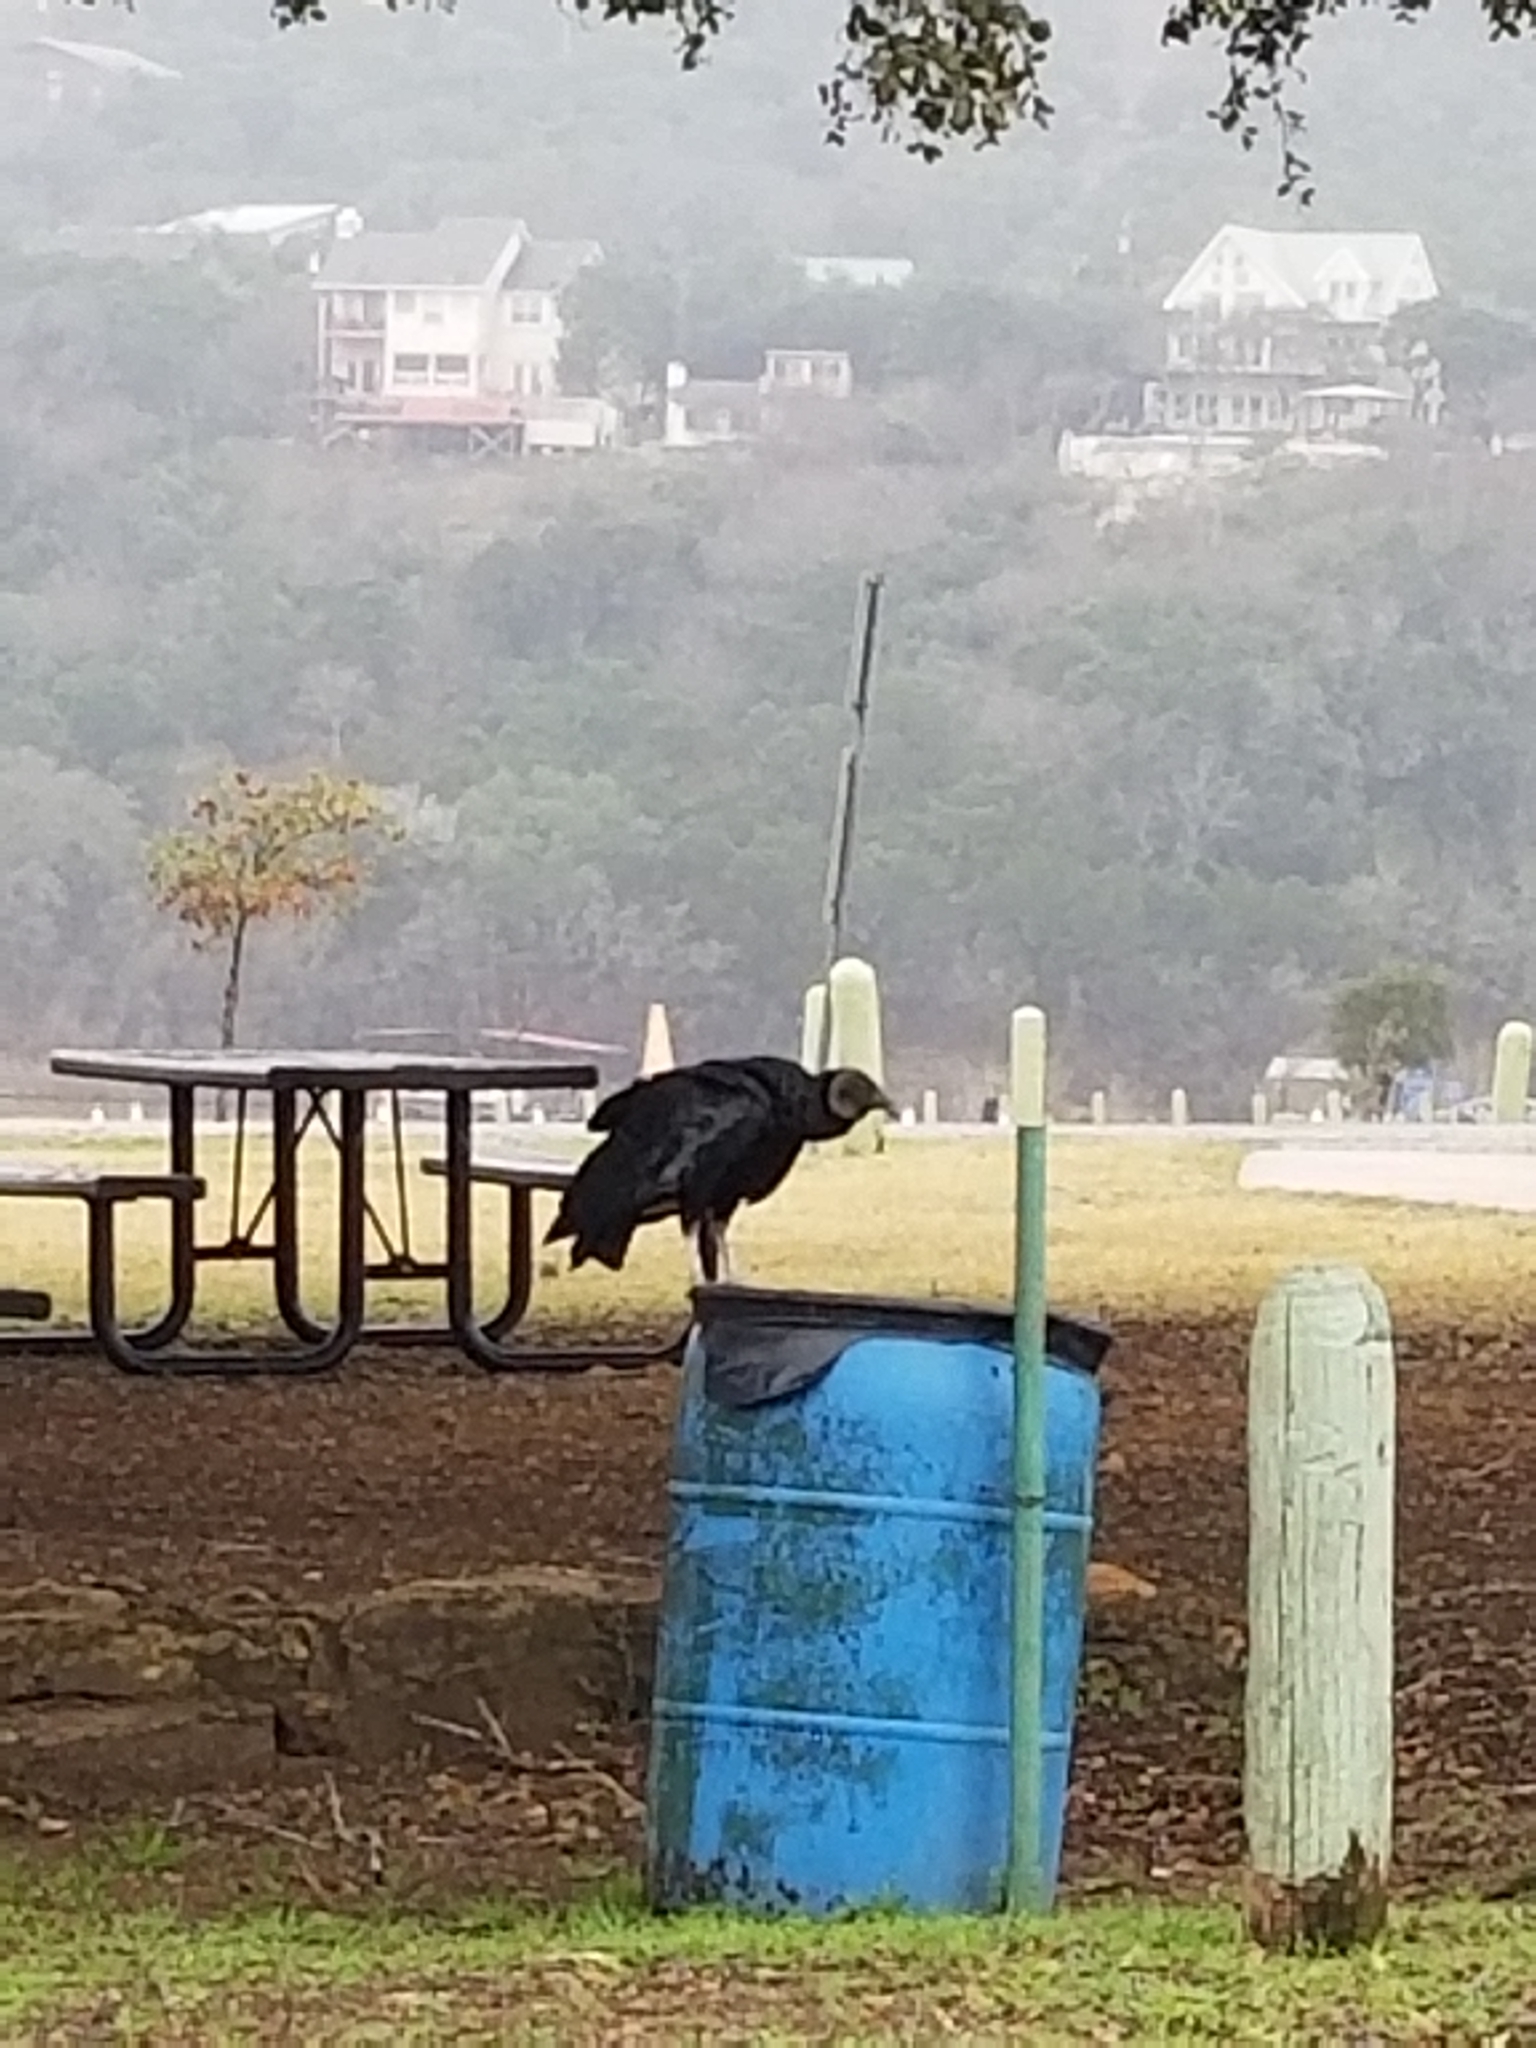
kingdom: Animalia
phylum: Chordata
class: Aves
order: Accipitriformes
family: Cathartidae
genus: Coragyps
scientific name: Coragyps atratus
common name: Black vulture
